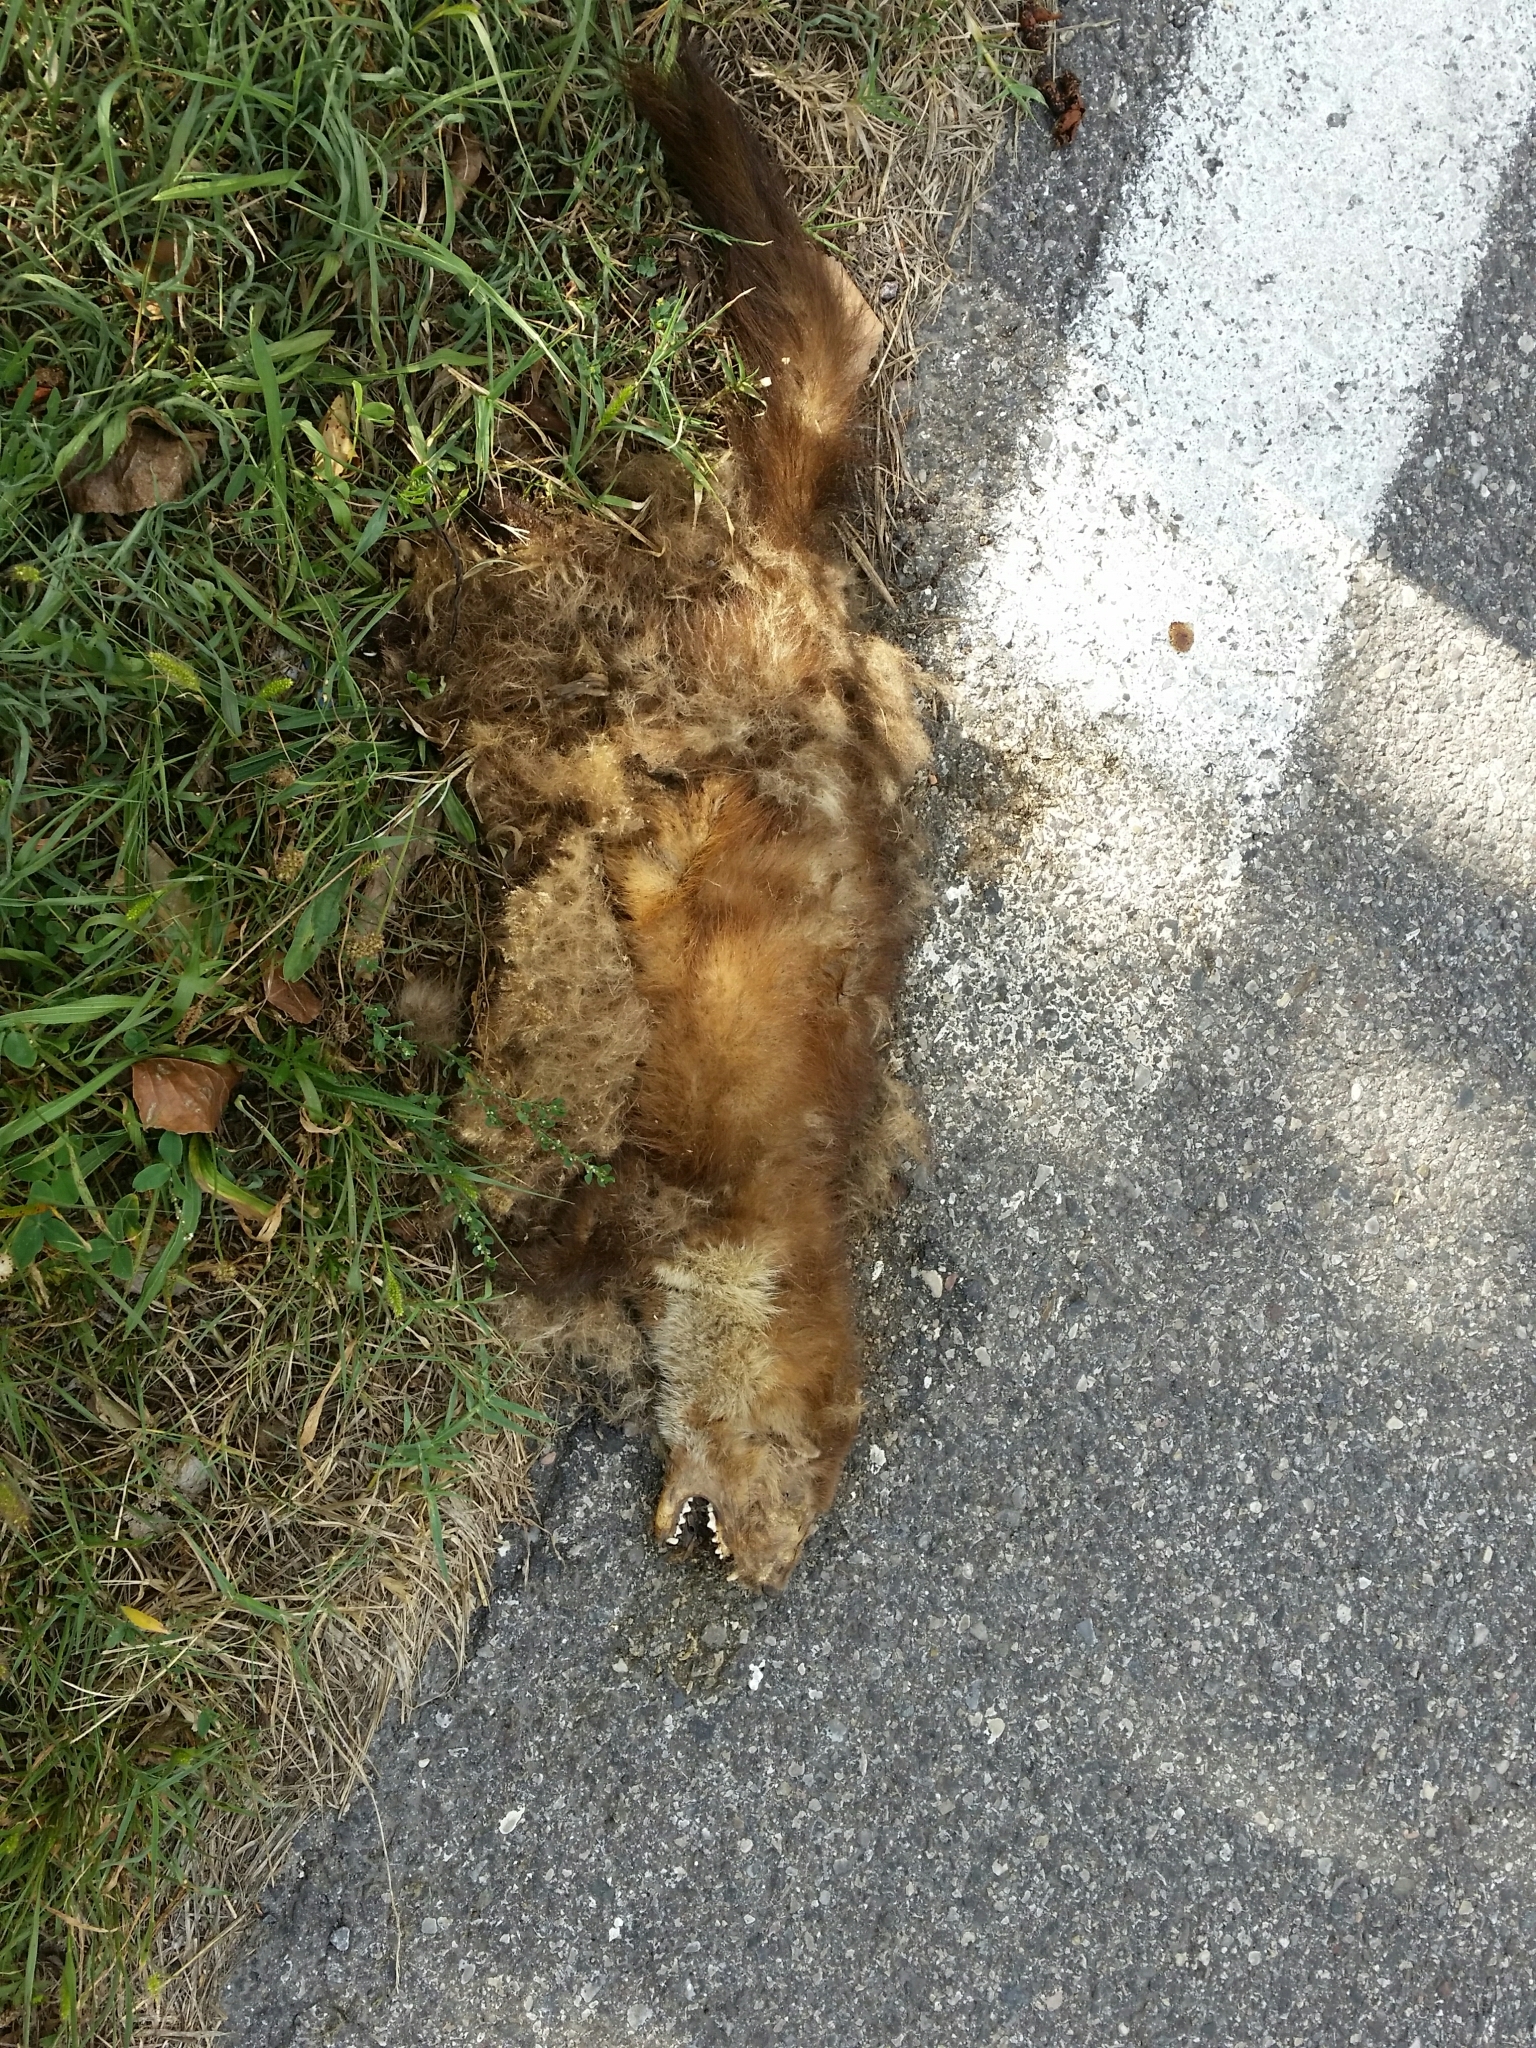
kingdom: Animalia
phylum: Chordata
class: Mammalia
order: Carnivora
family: Mustelidae
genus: Martes
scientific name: Martes foina
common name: Beech marten
